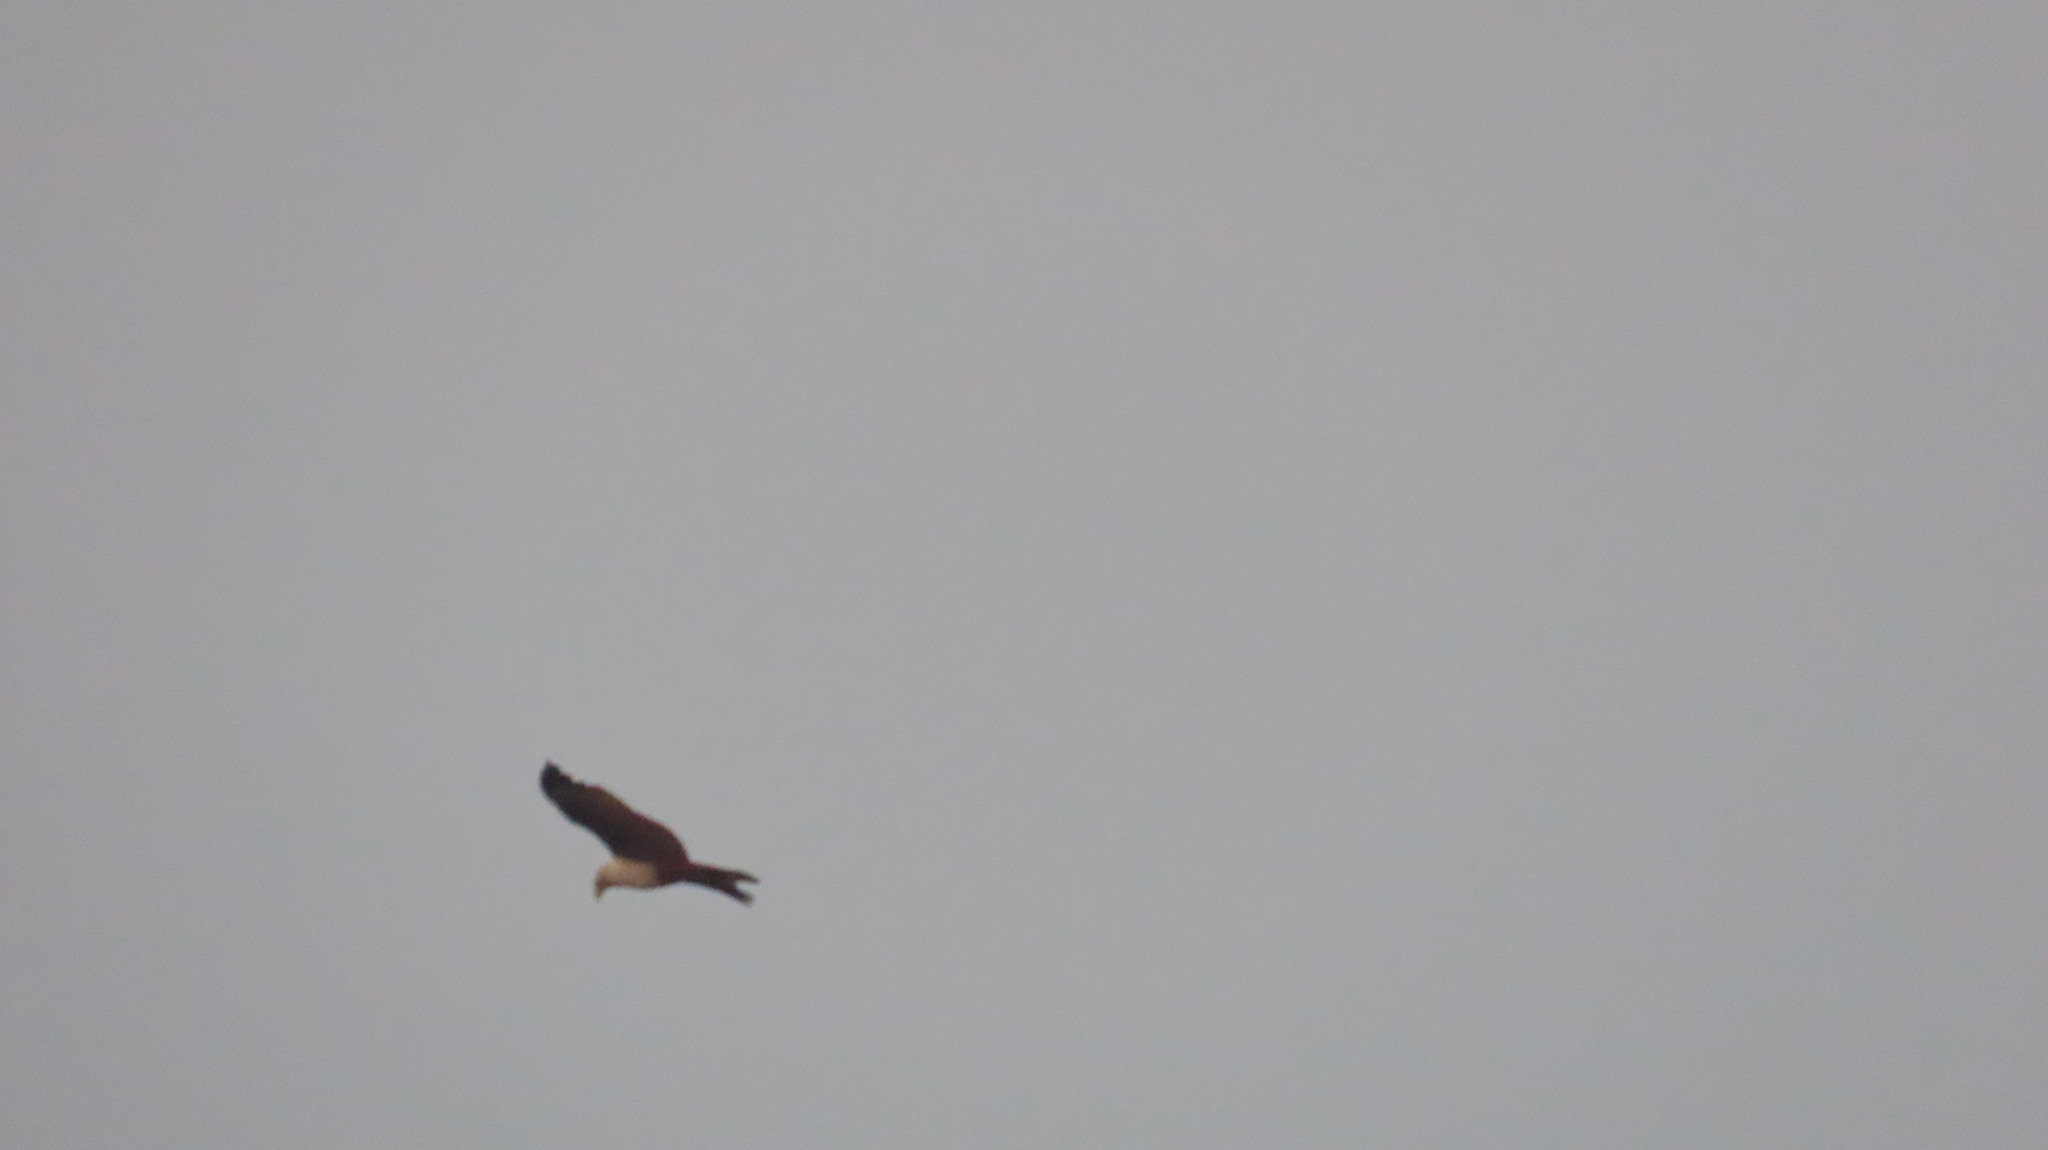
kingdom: Animalia
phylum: Chordata
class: Aves
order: Accipitriformes
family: Accipitridae
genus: Haliastur
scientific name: Haliastur indus
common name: Brahminy kite
